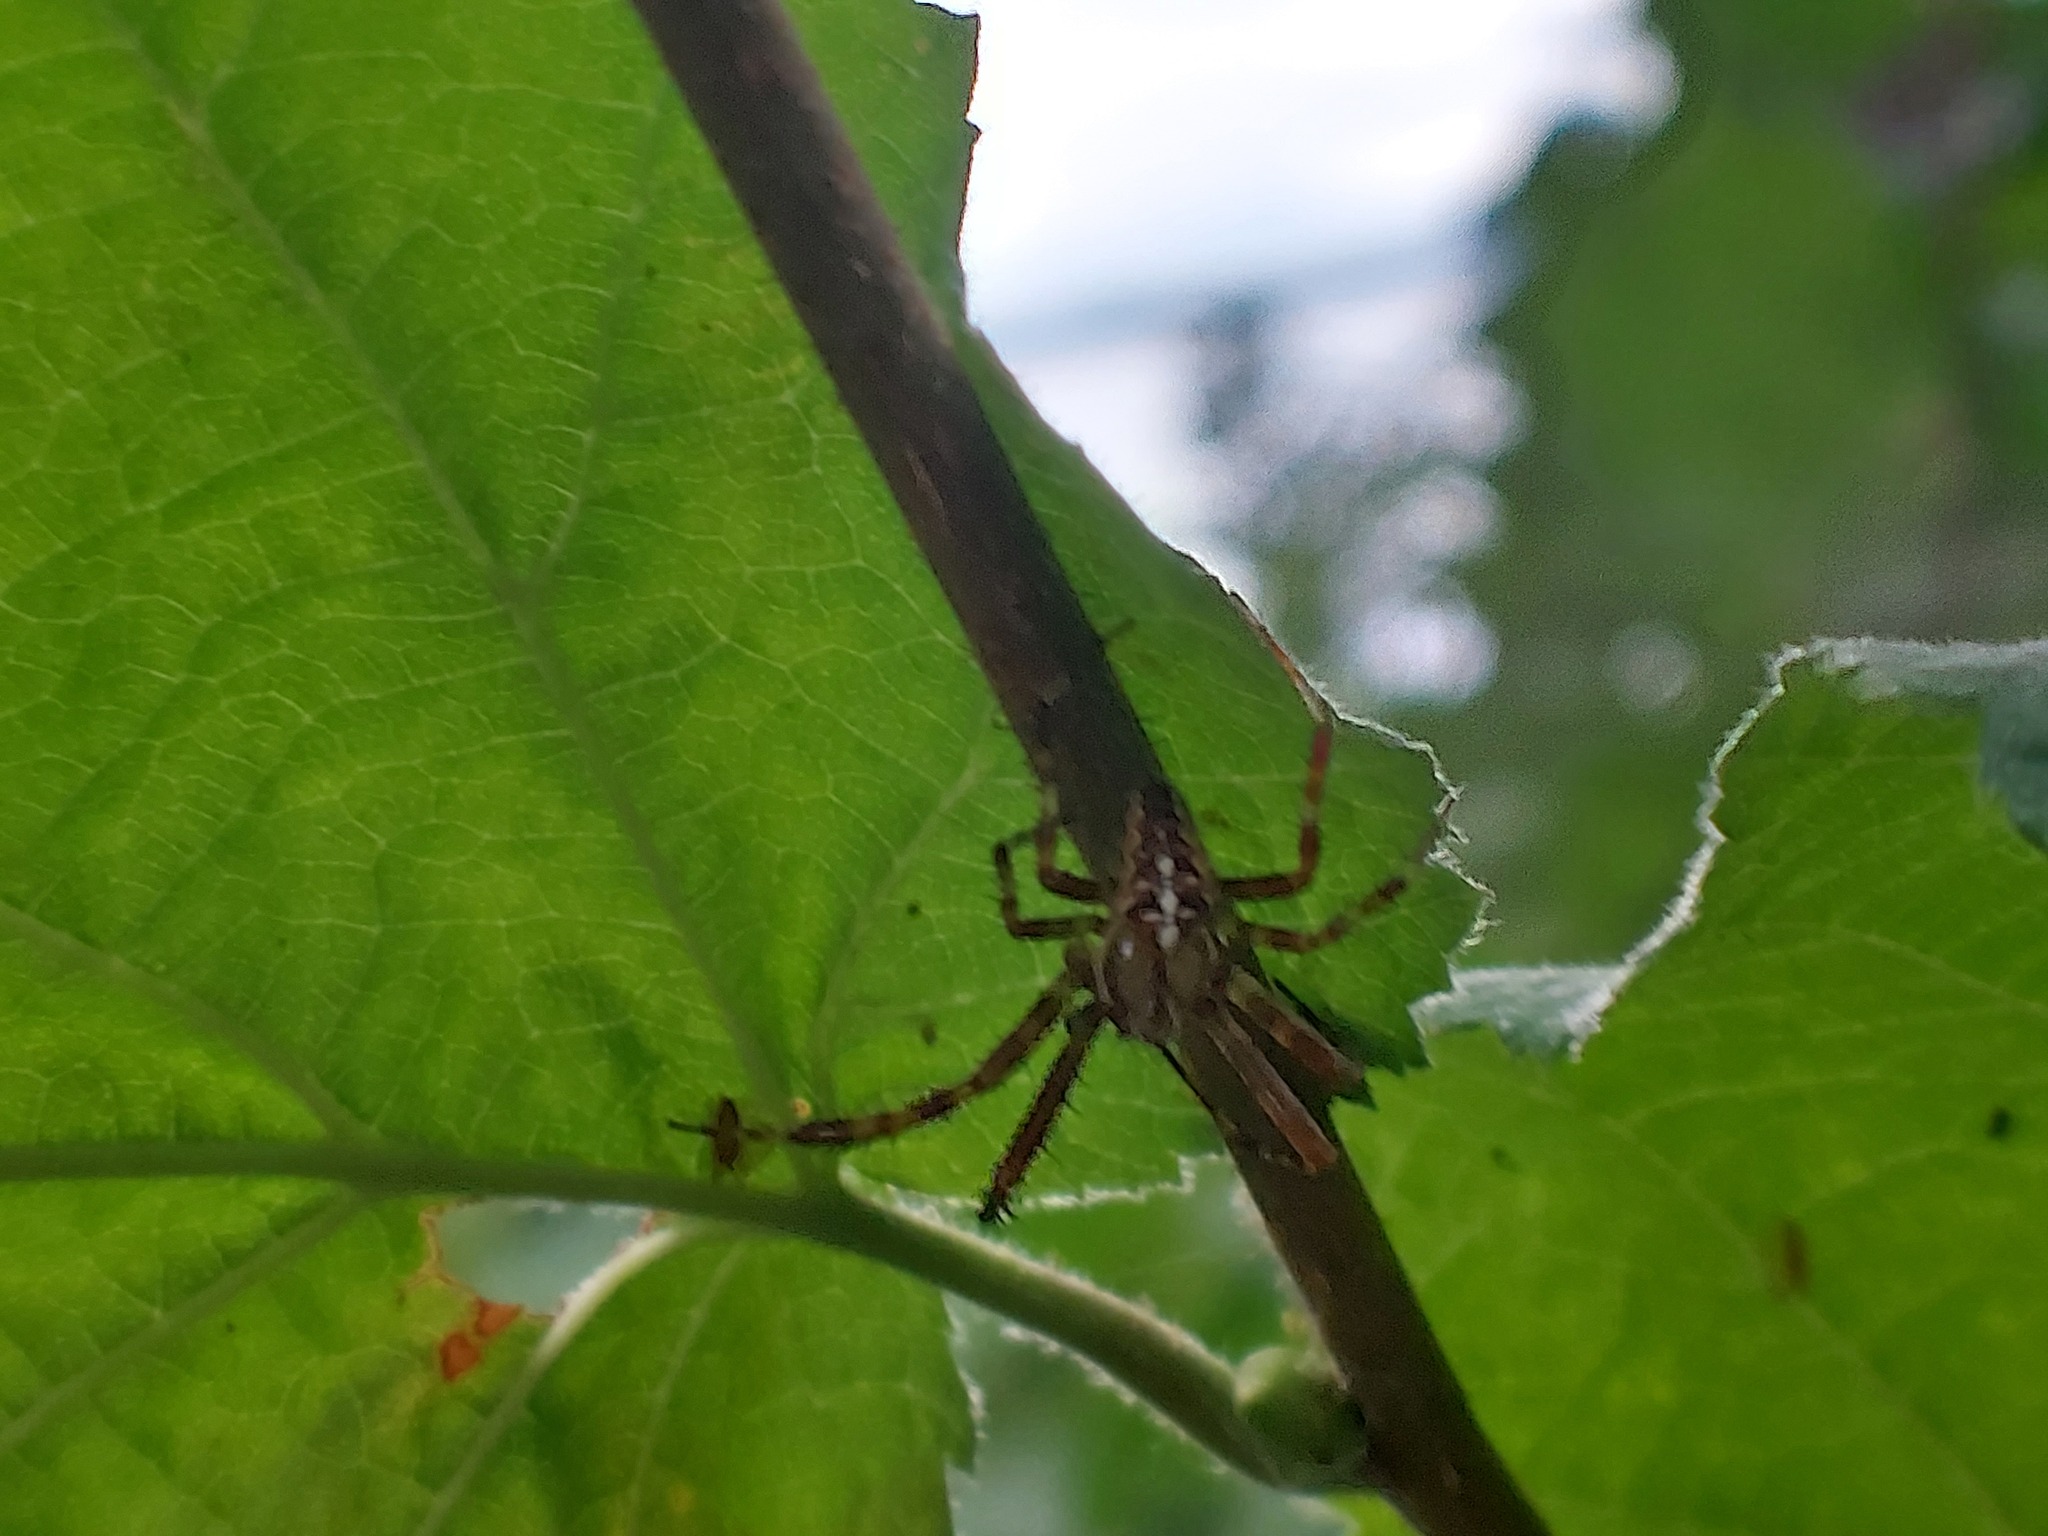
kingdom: Animalia
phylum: Arthropoda
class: Arachnida
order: Araneae
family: Araneidae
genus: Araneus
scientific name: Araneus diadematus
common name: Cross orbweaver
